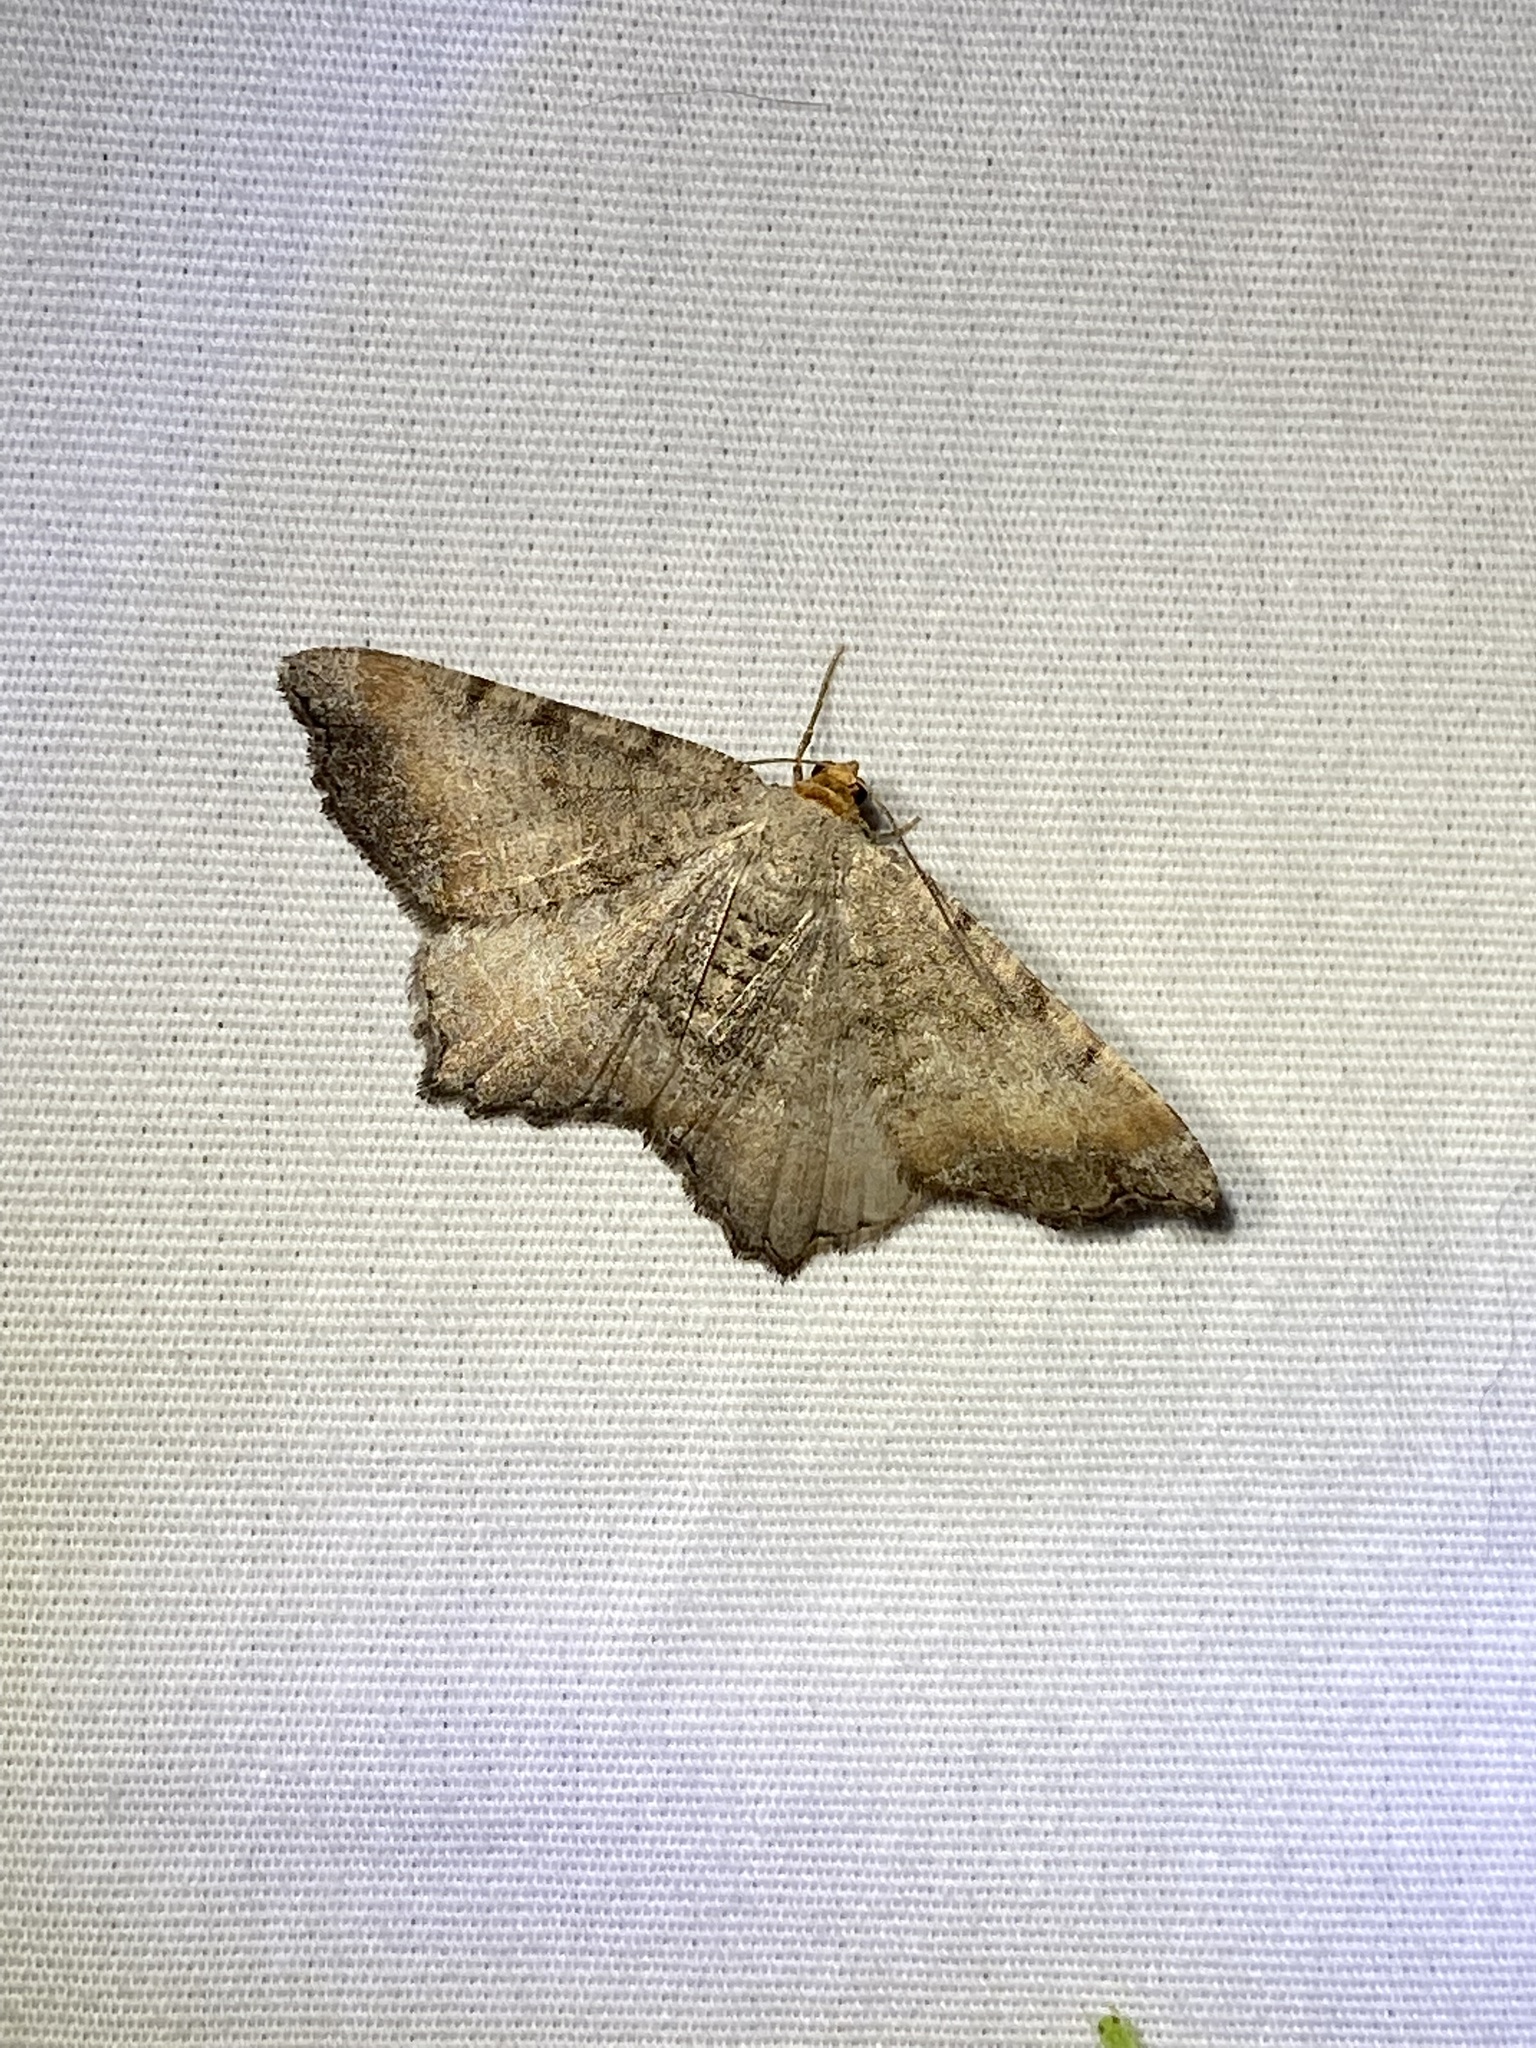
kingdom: Animalia
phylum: Arthropoda
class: Insecta
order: Lepidoptera
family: Geometridae
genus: Macaria
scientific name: Macaria transitaria
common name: Blurry chocolate angle
